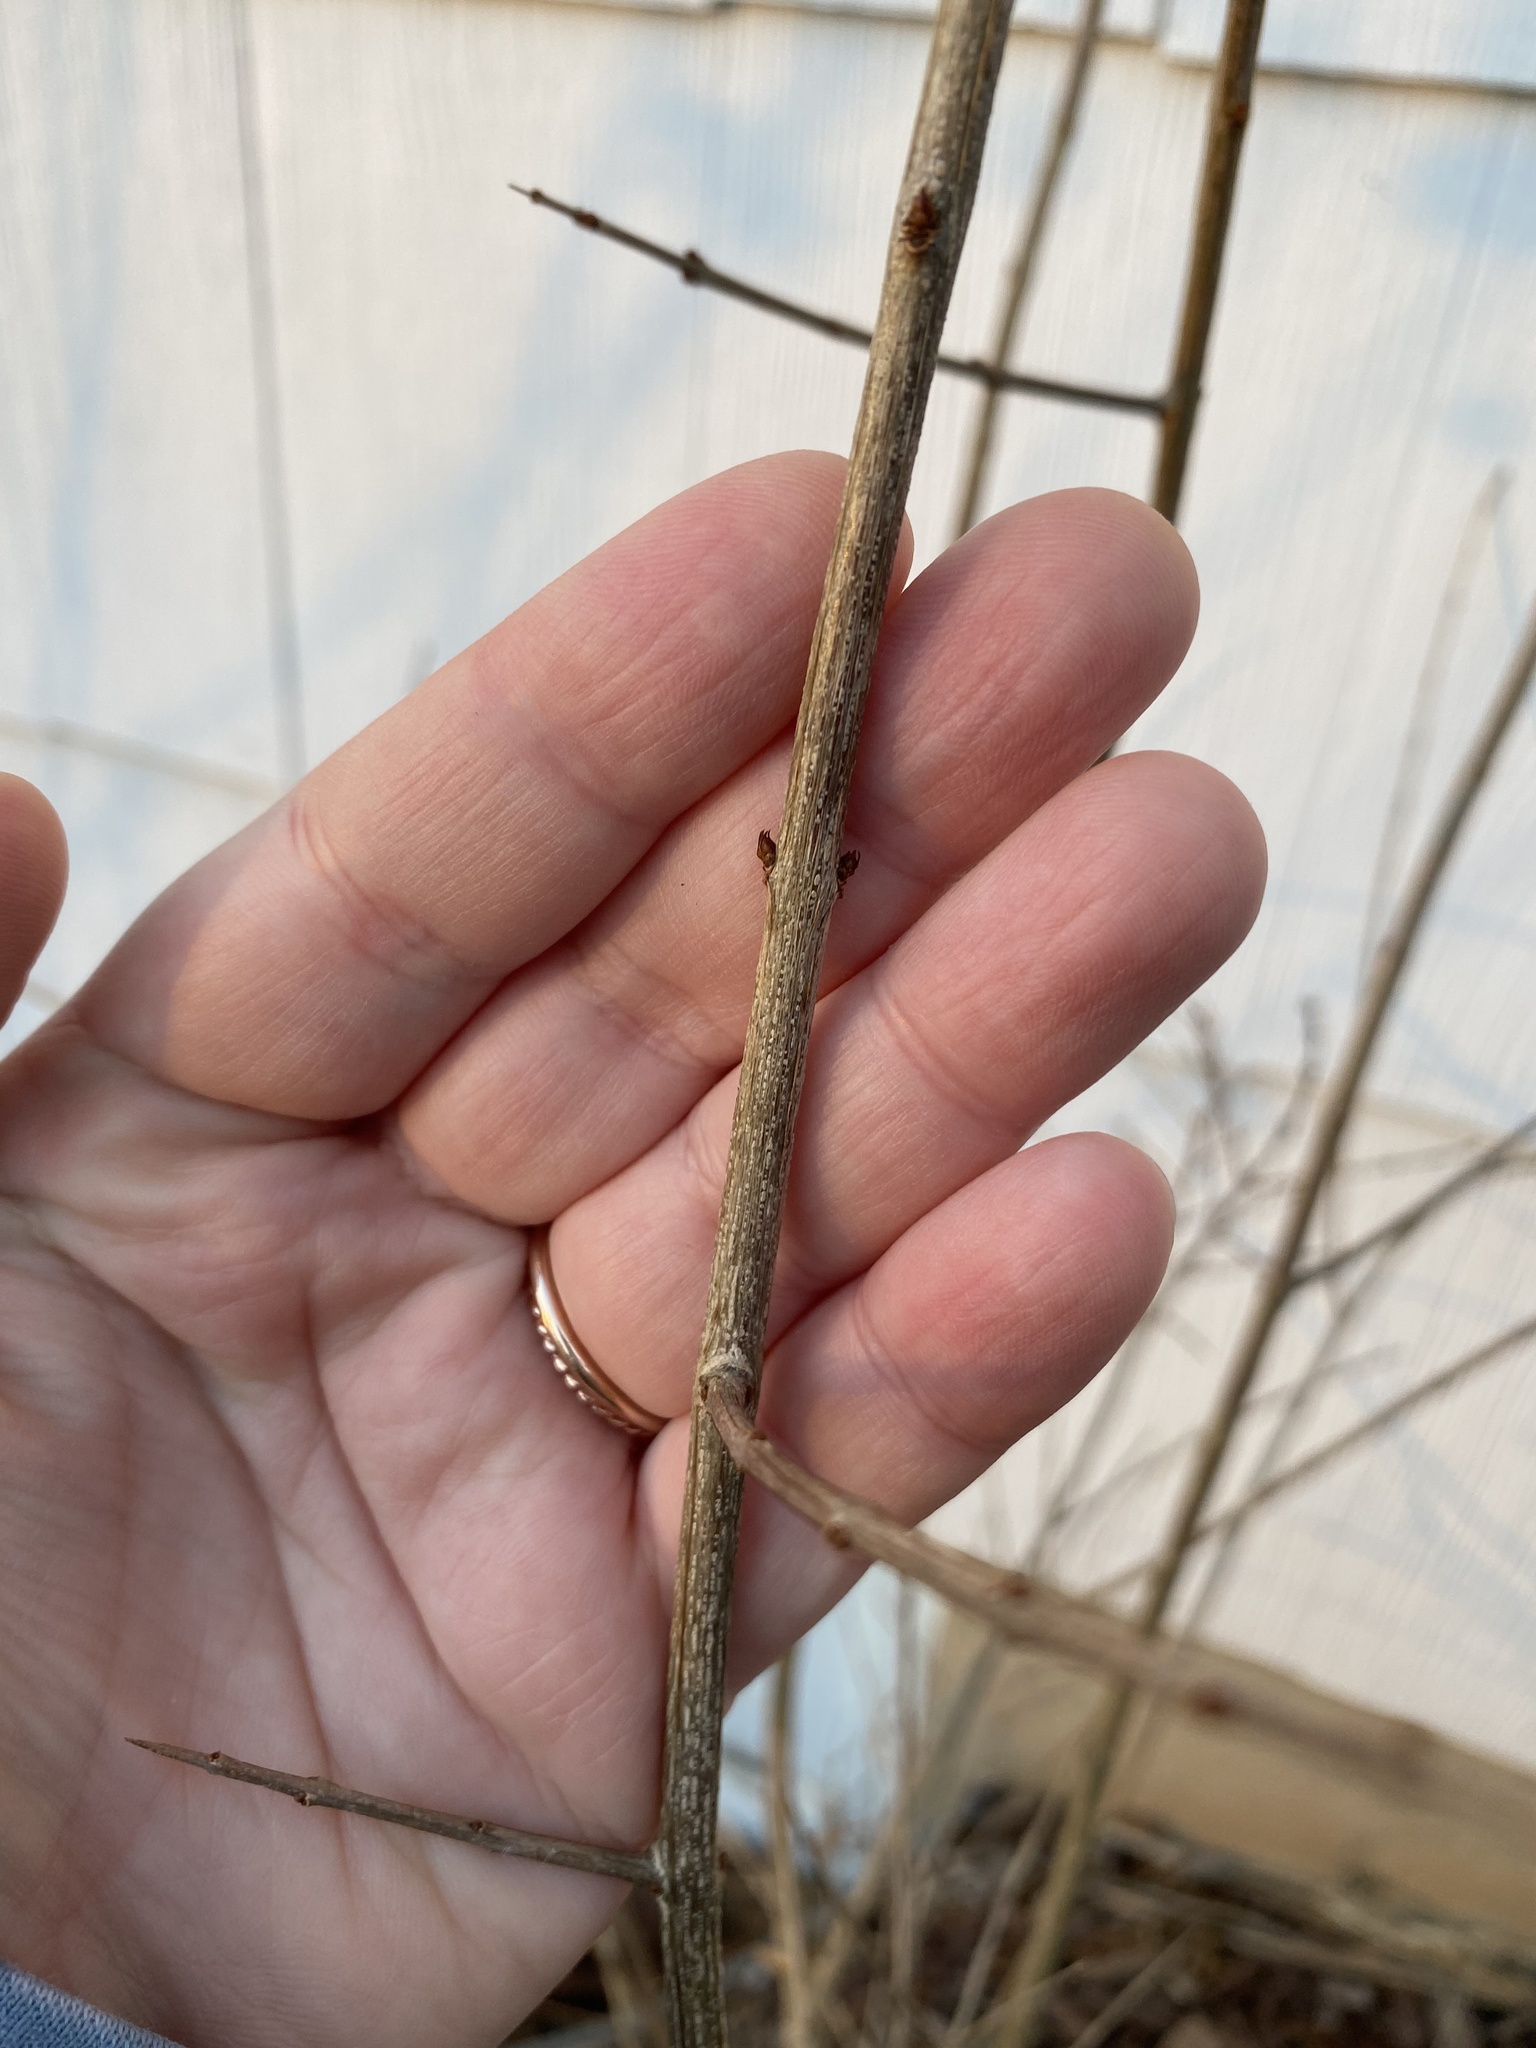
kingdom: Plantae
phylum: Tracheophyta
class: Magnoliopsida
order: Myrtales
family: Lythraceae
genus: Punica
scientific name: Punica granatum
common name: Pomegranate
